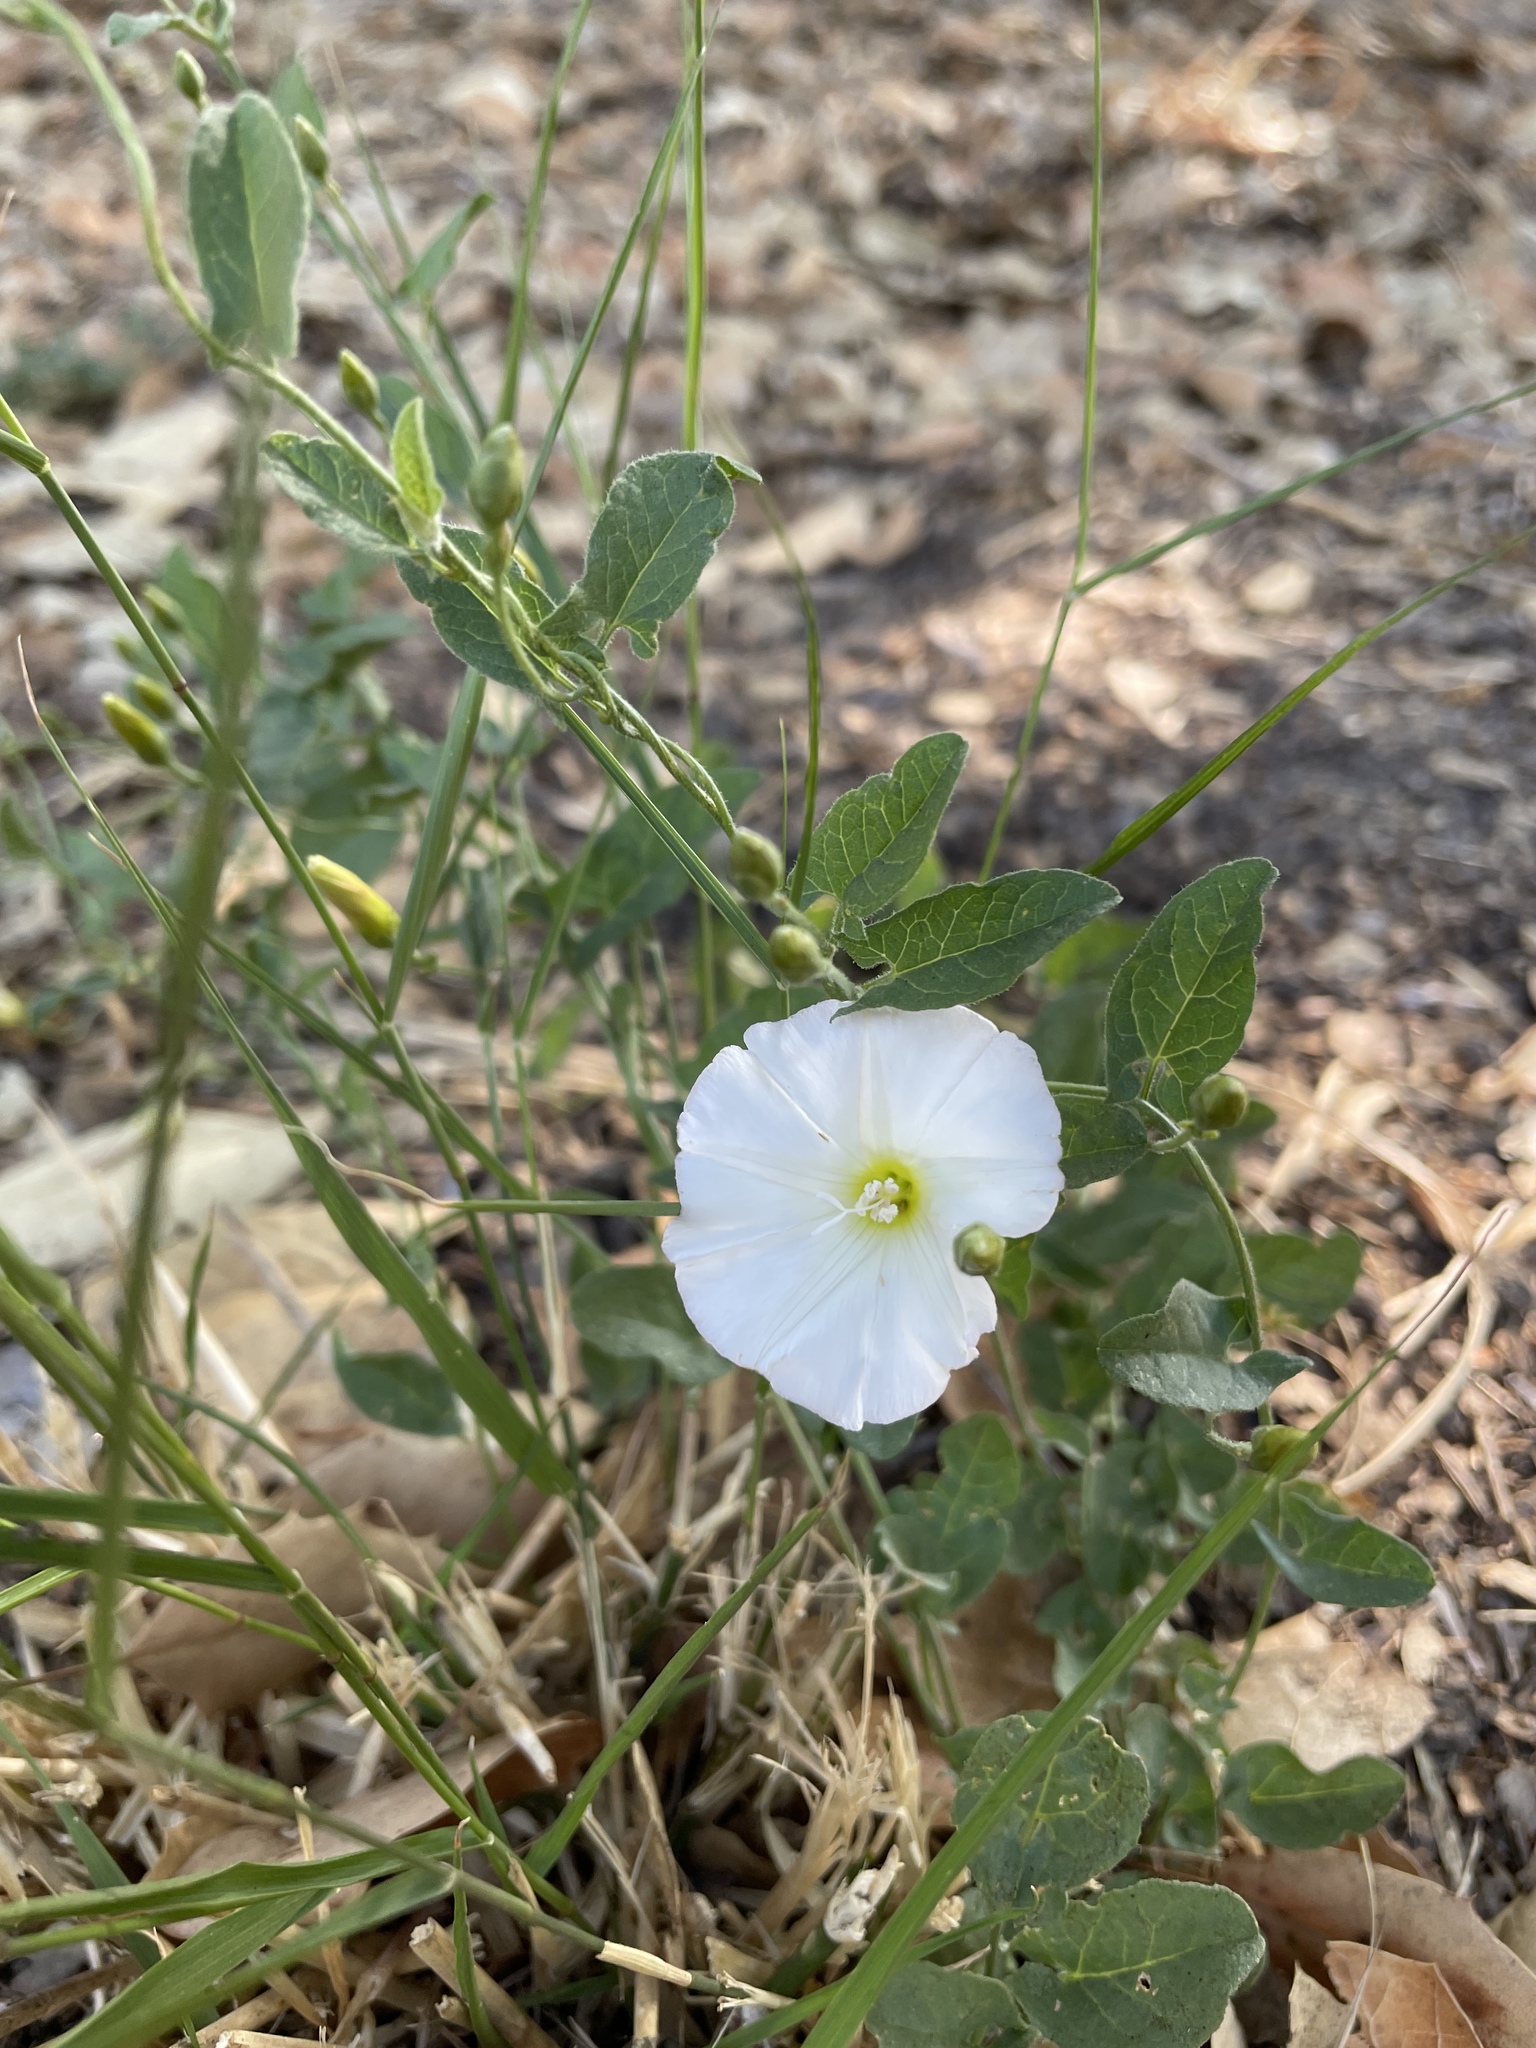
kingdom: Plantae
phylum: Tracheophyta
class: Magnoliopsida
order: Solanales
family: Convolvulaceae
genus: Convolvulus
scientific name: Convolvulus arvensis
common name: Field bindweed
